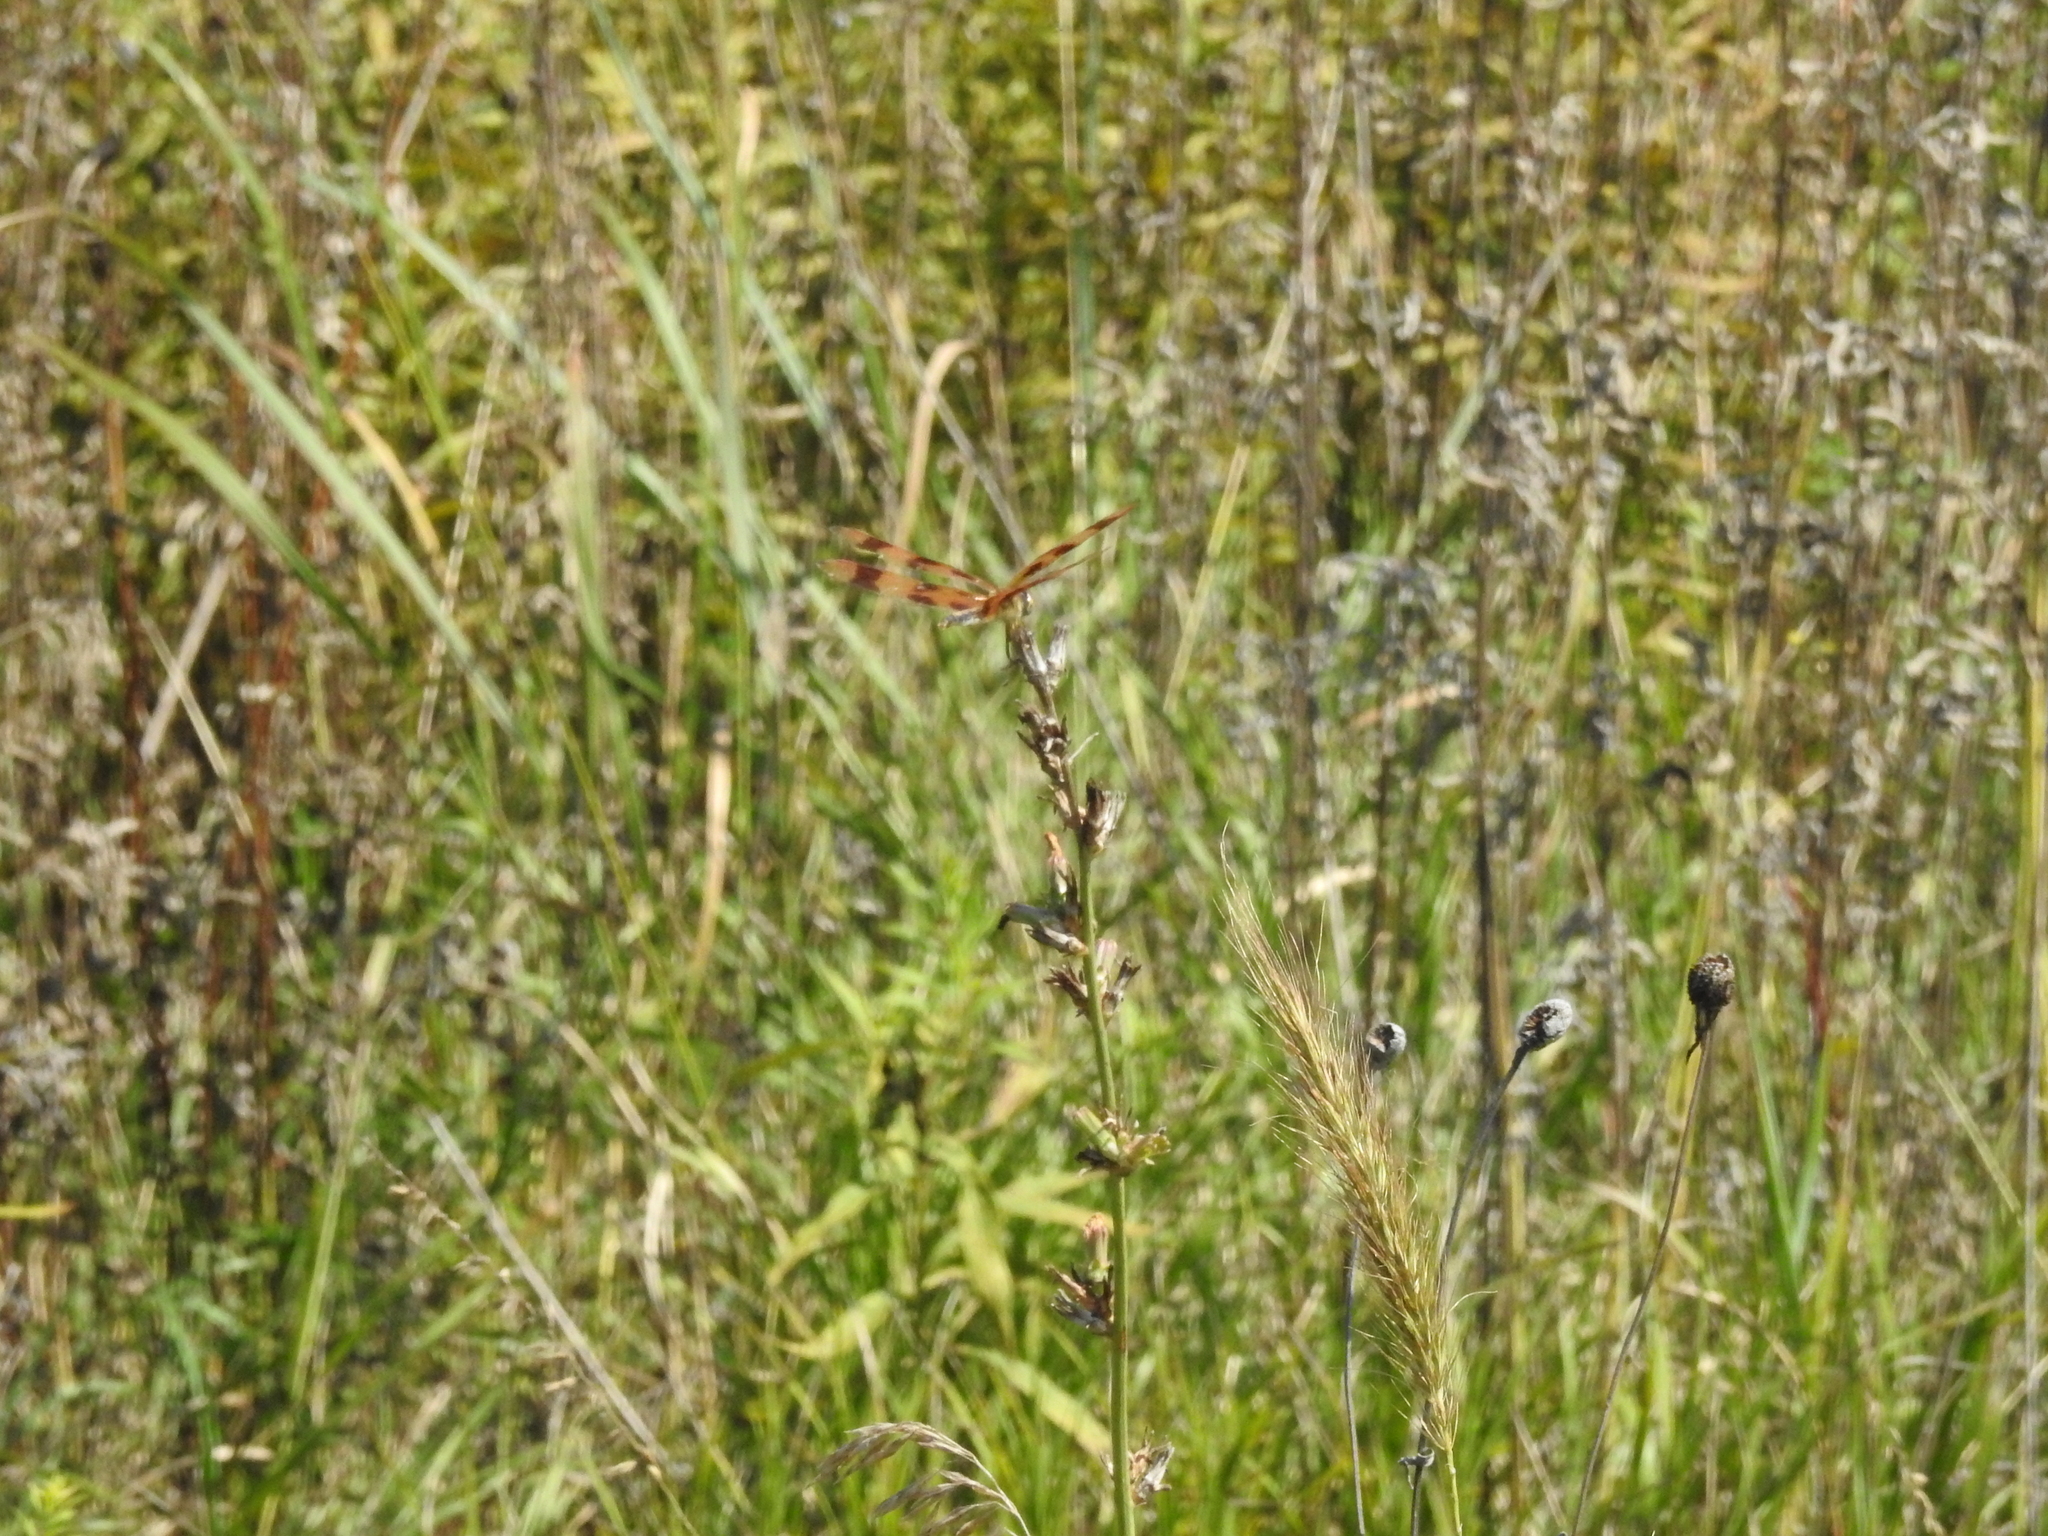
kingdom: Animalia
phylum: Arthropoda
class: Insecta
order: Odonata
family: Libellulidae
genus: Celithemis
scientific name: Celithemis eponina
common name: Halloween pennant
